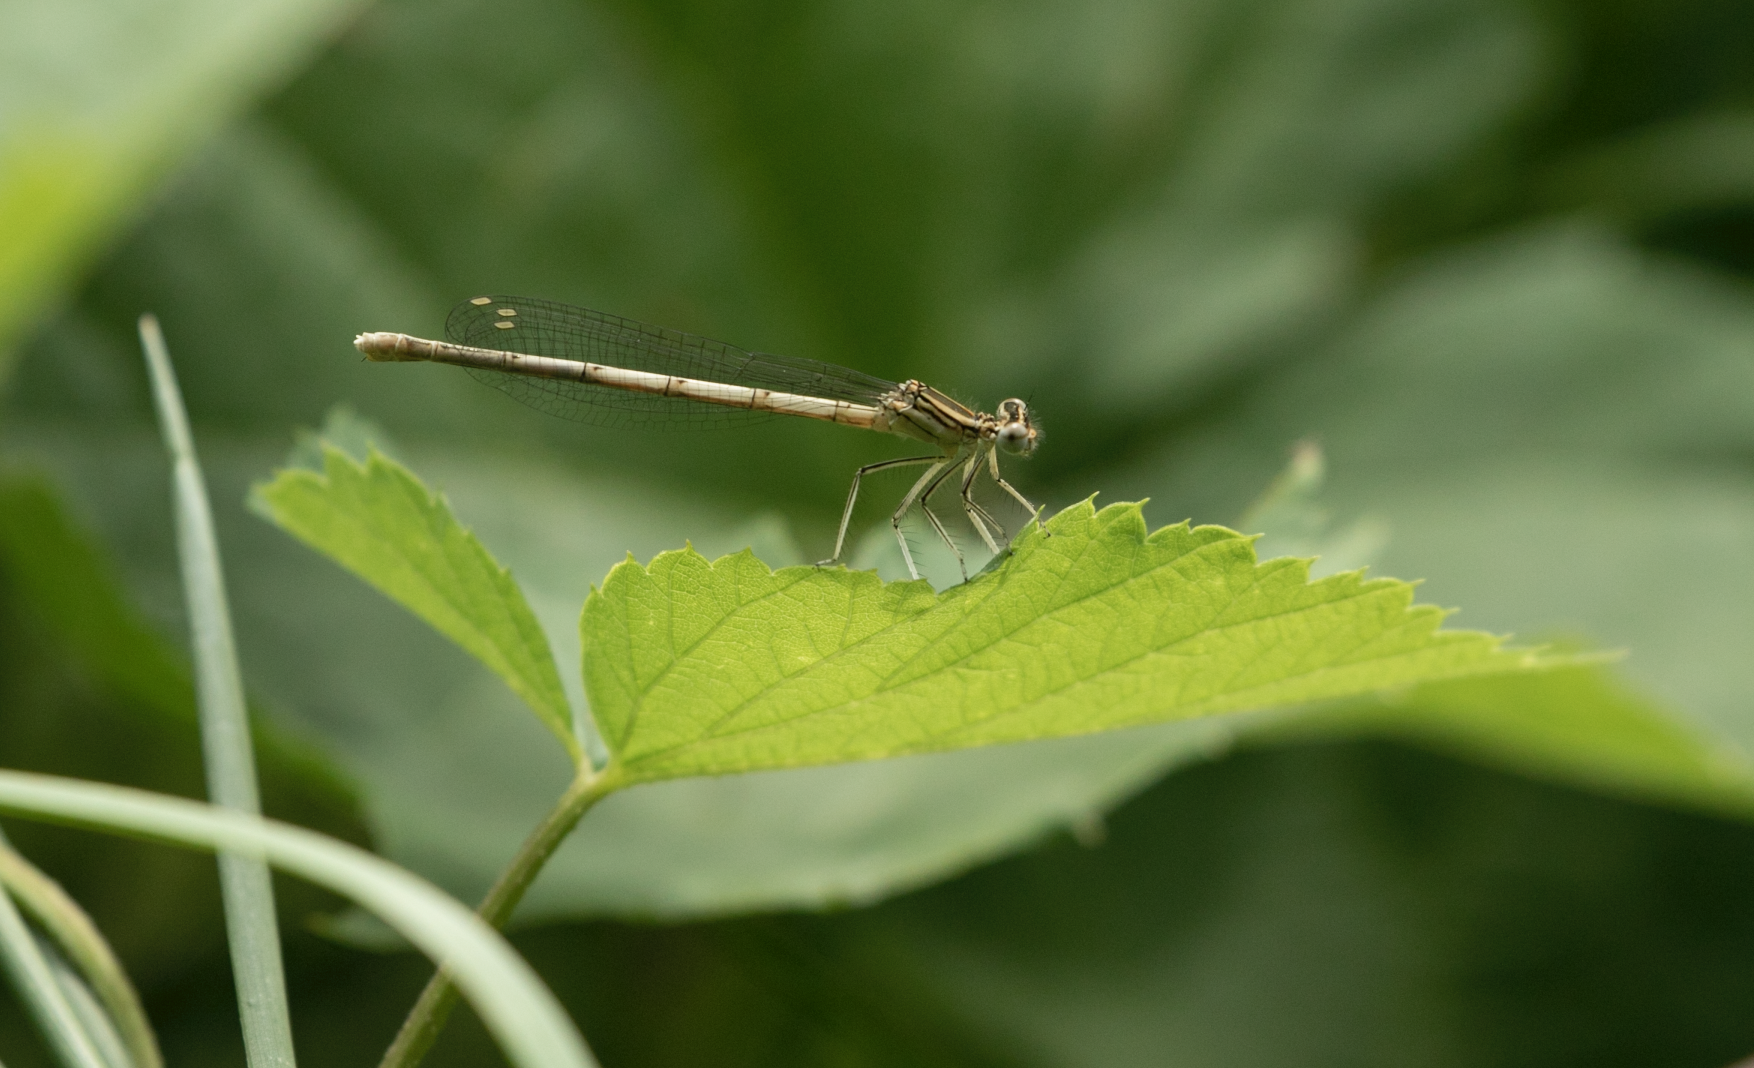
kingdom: Animalia
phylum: Arthropoda
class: Insecta
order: Odonata
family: Platycnemididae
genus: Platycnemis
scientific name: Platycnemis pennipes
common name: White-legged damselfly
